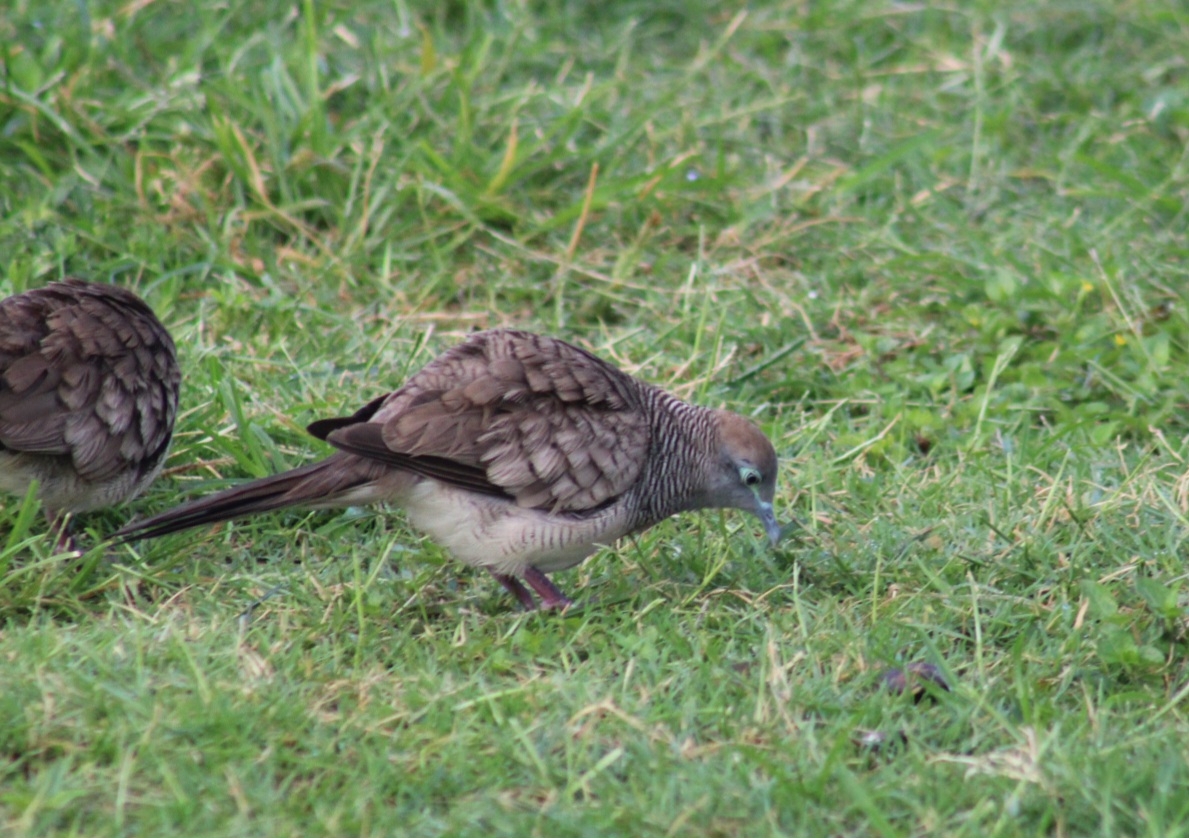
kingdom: Animalia
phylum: Chordata
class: Aves
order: Columbiformes
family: Columbidae
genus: Geopelia
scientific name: Geopelia striata
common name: Zebra dove
